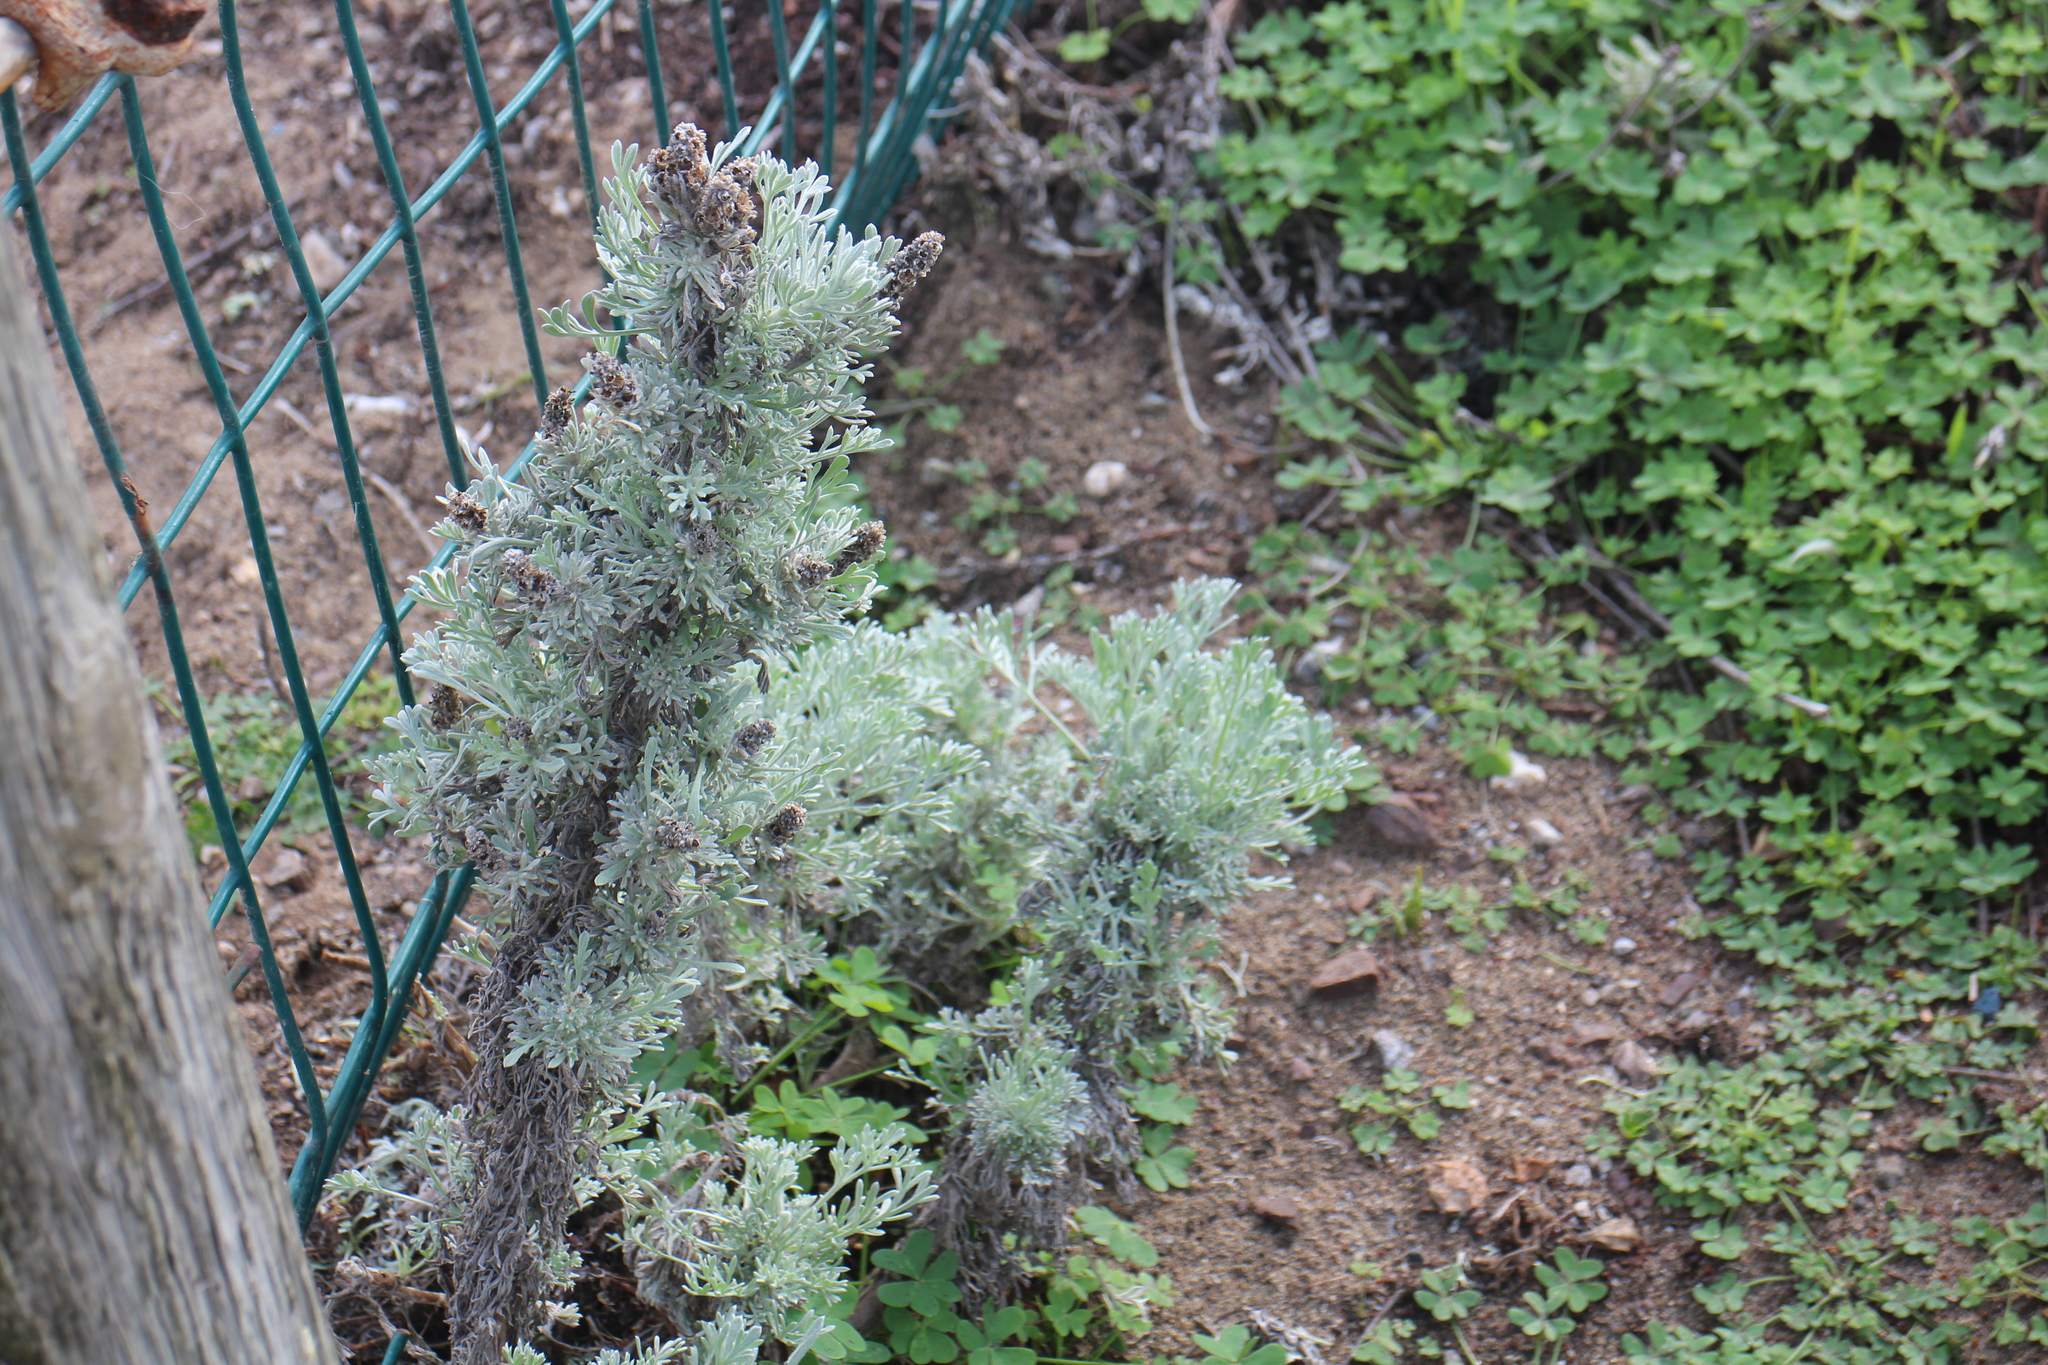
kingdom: Plantae
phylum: Tracheophyta
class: Magnoliopsida
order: Asterales
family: Asteraceae
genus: Artemisia
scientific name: Artemisia pycnocephala
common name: Coastal sagewort
